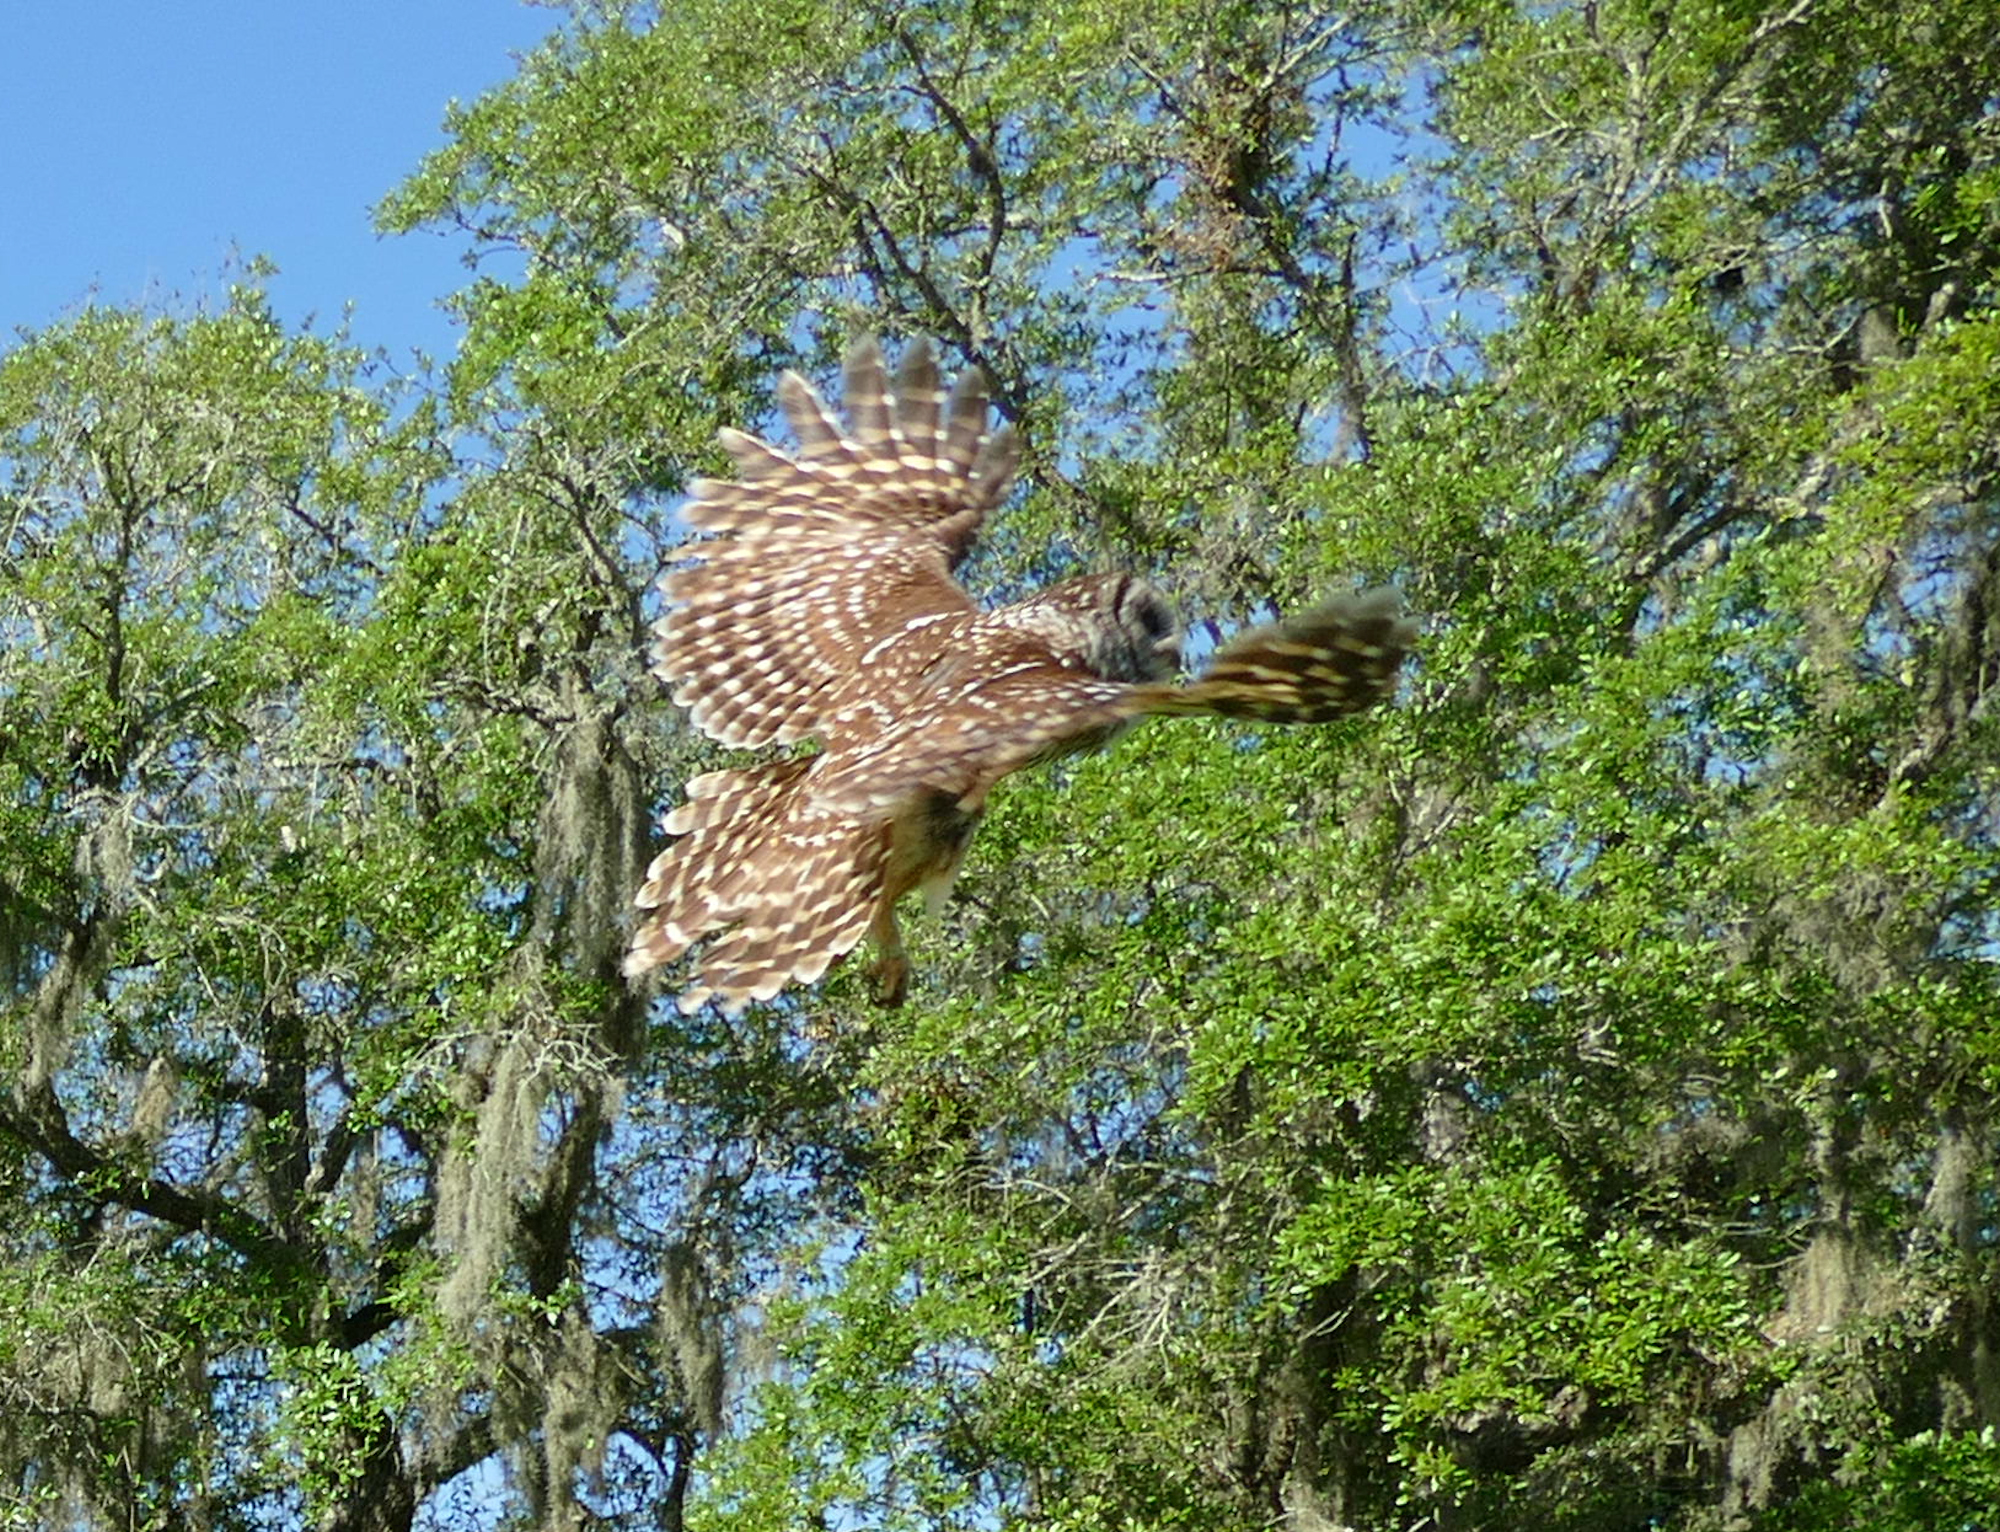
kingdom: Animalia
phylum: Chordata
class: Aves
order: Strigiformes
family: Strigidae
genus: Strix
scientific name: Strix varia
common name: Barred owl
